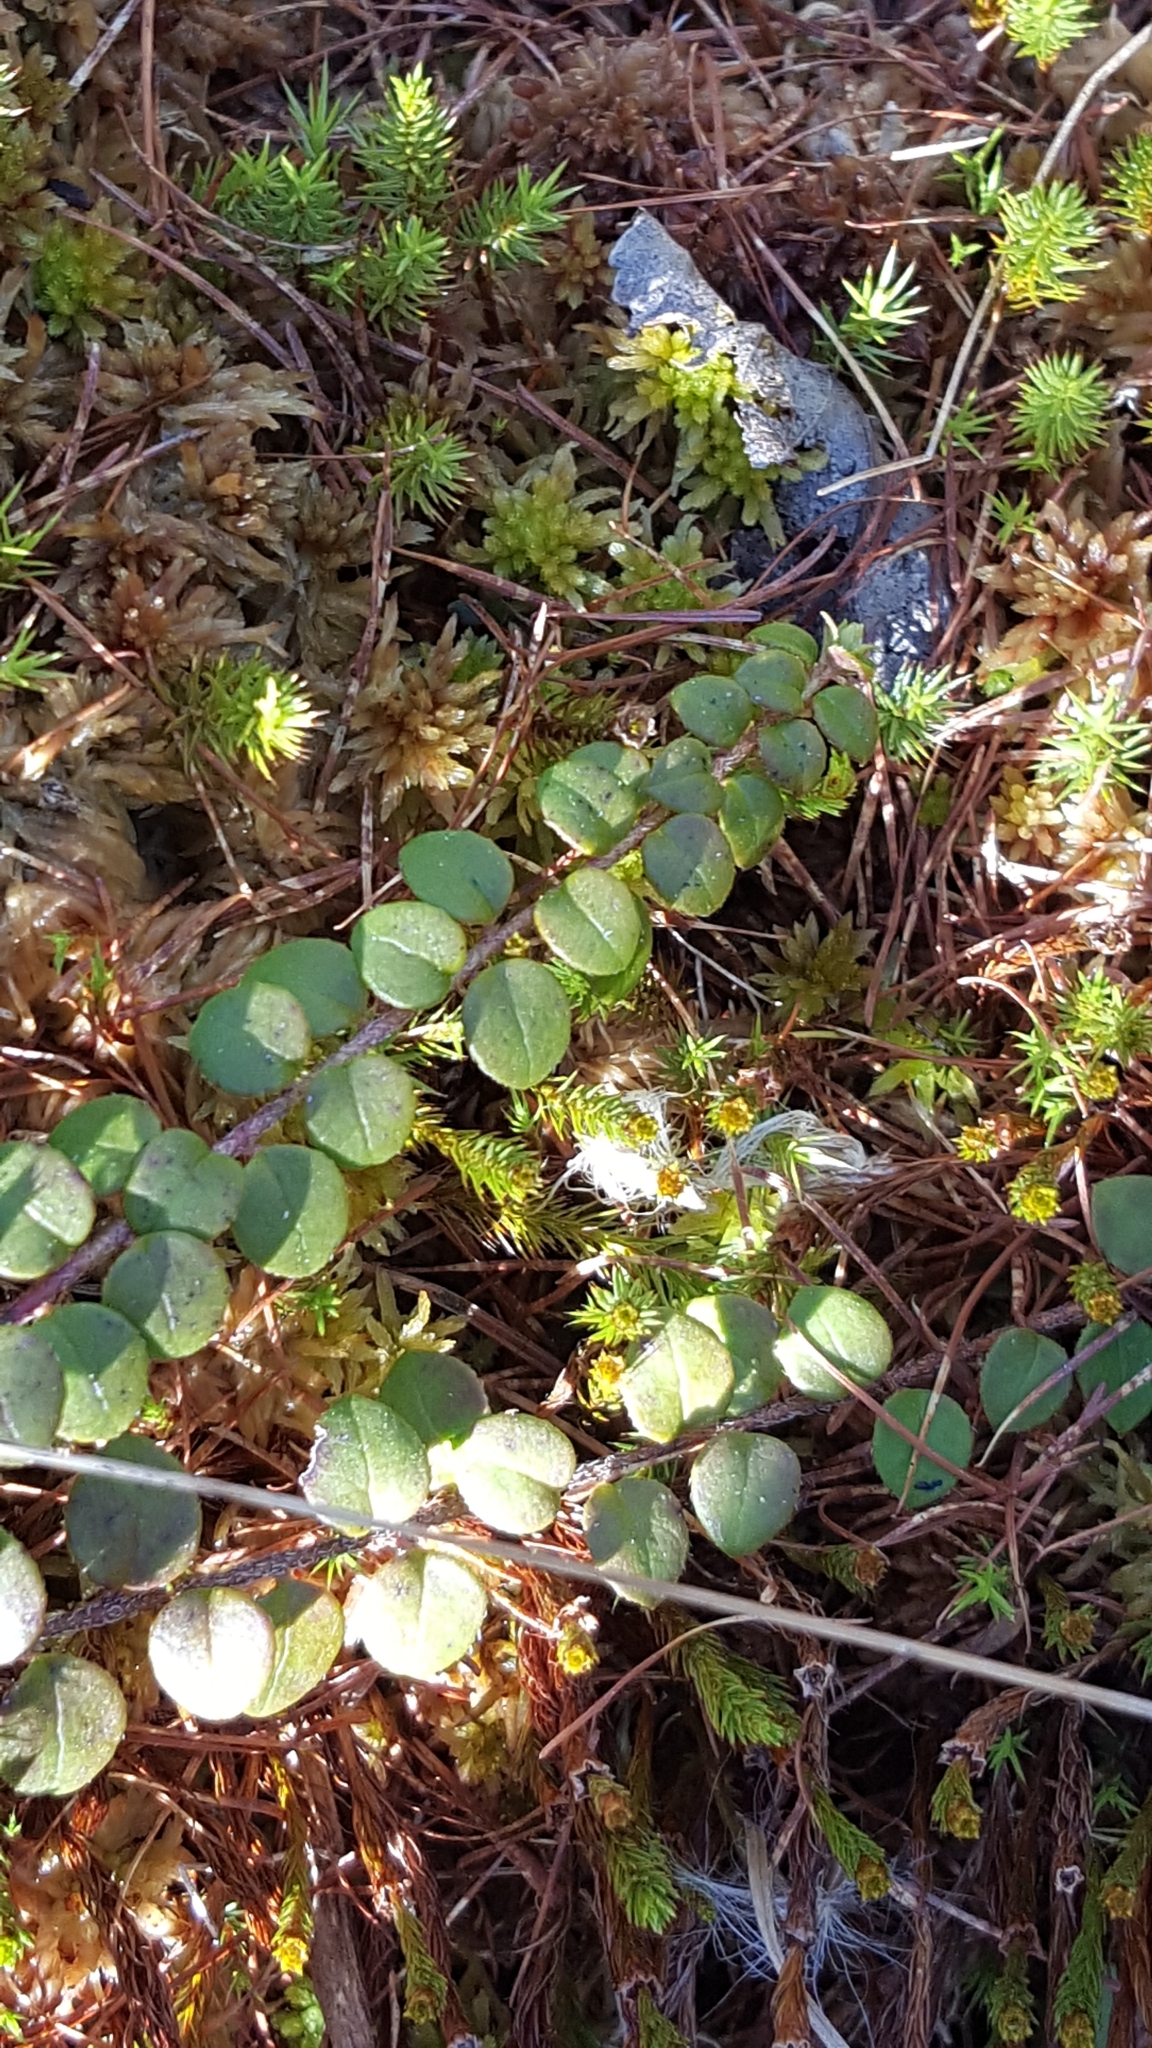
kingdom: Plantae
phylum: Tracheophyta
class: Magnoliopsida
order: Ericales
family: Ericaceae
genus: Gaultheria
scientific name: Gaultheria hispidula
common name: Cancer wintergreen
